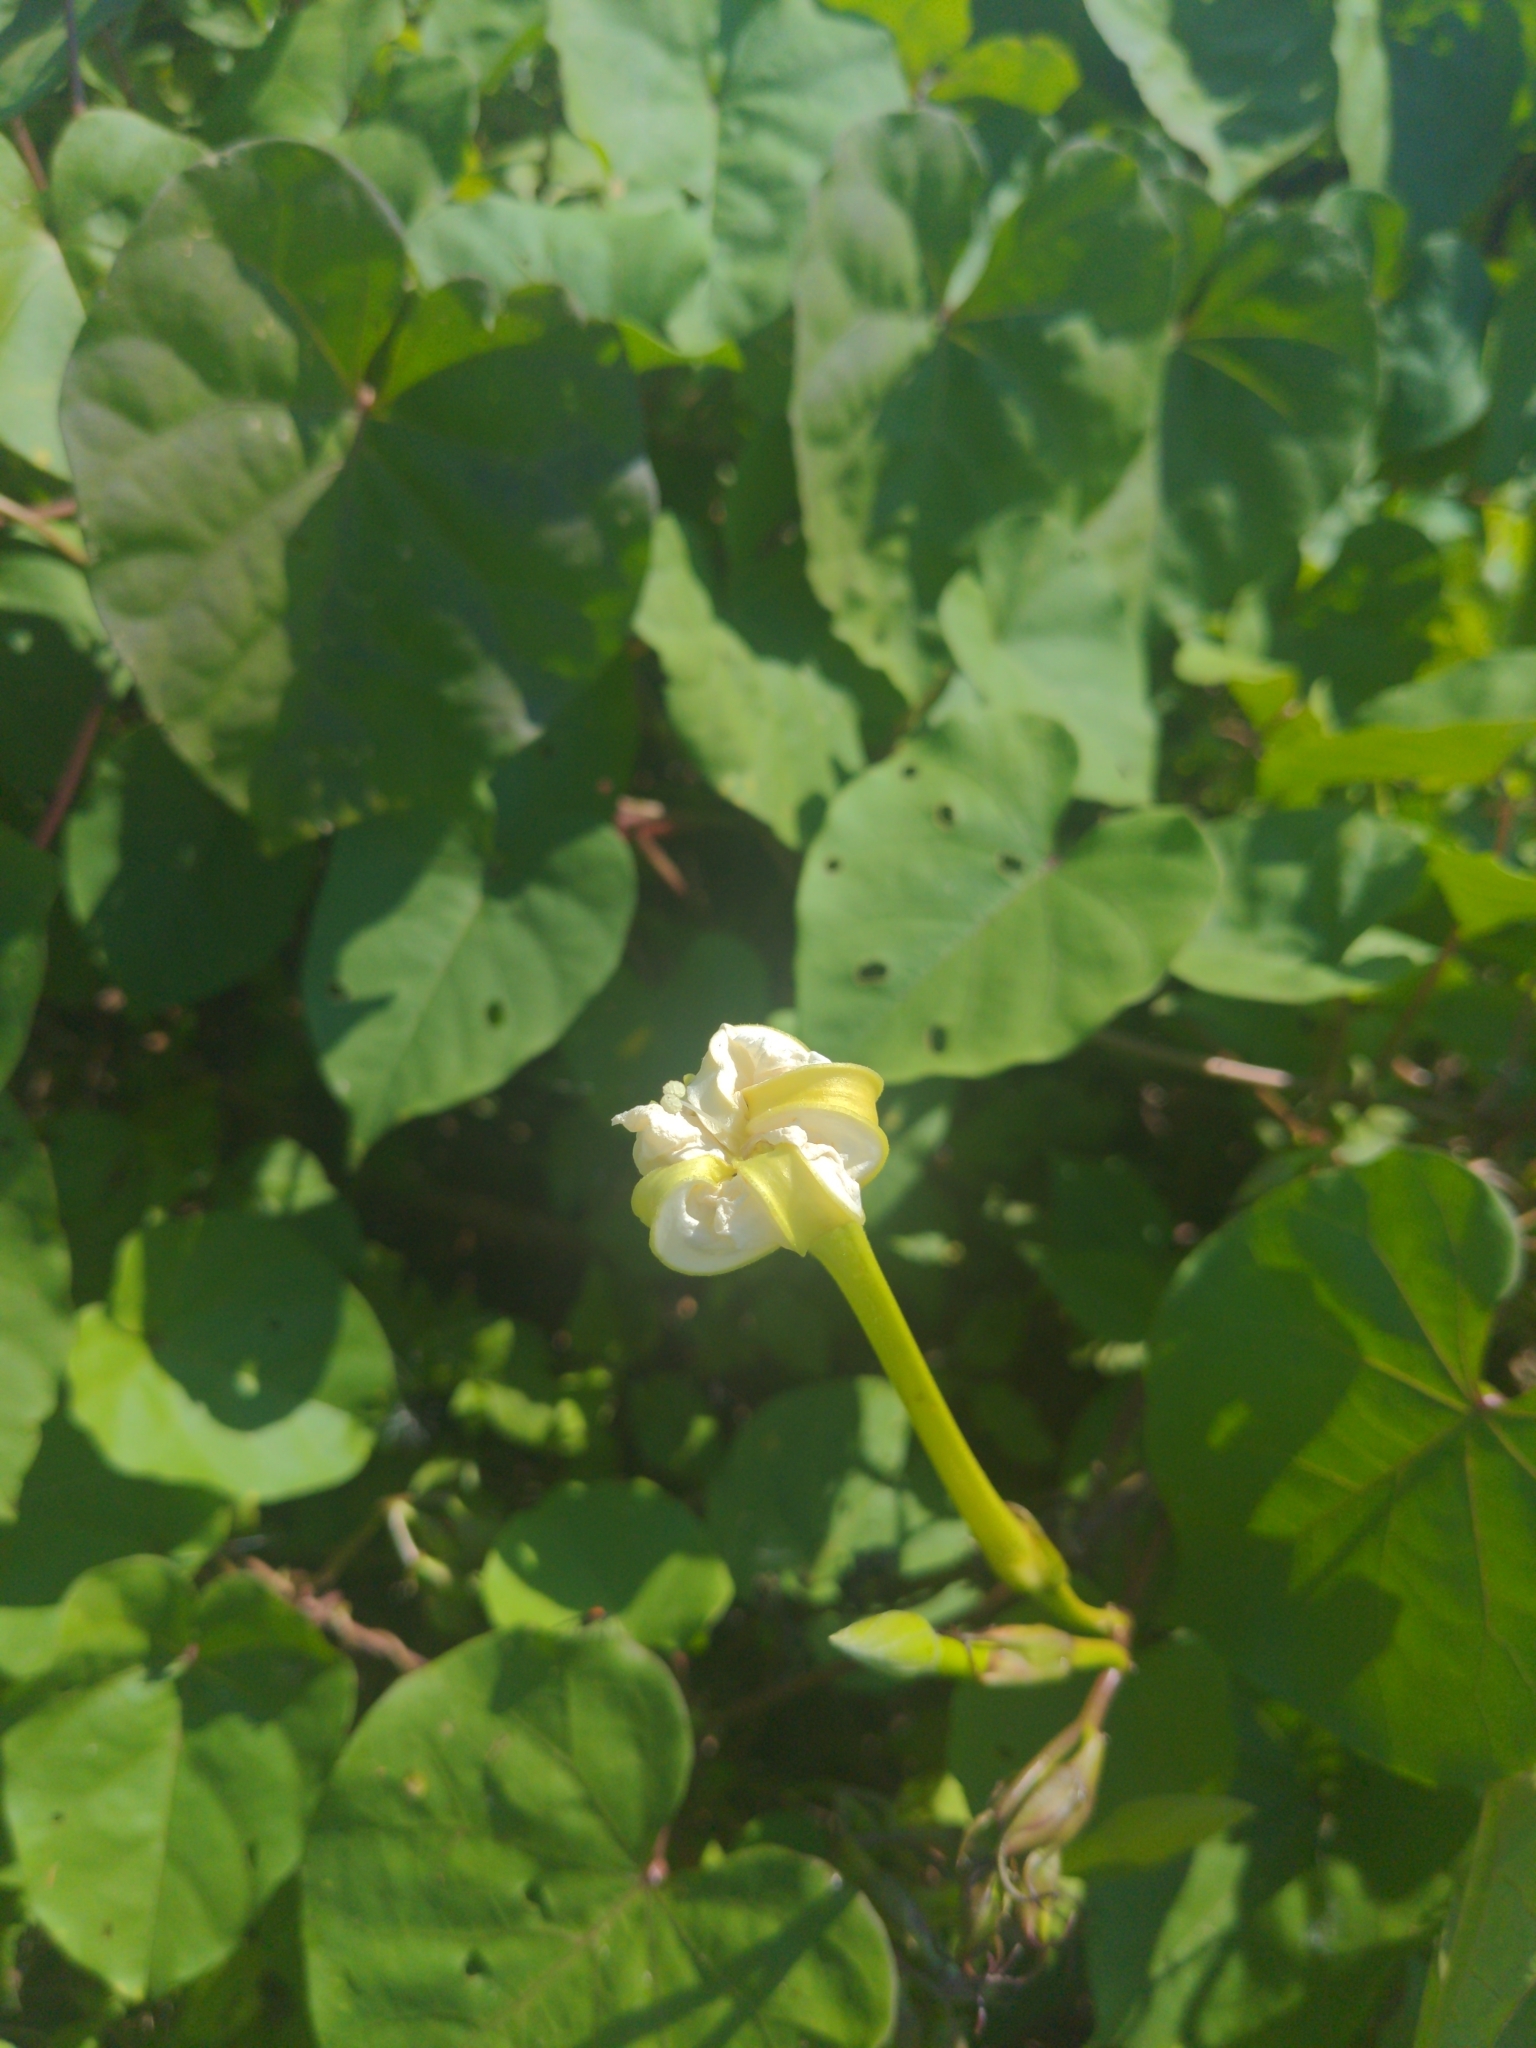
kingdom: Plantae
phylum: Tracheophyta
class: Magnoliopsida
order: Solanales
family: Convolvulaceae
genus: Ipomoea
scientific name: Ipomoea alba
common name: Moonflower
